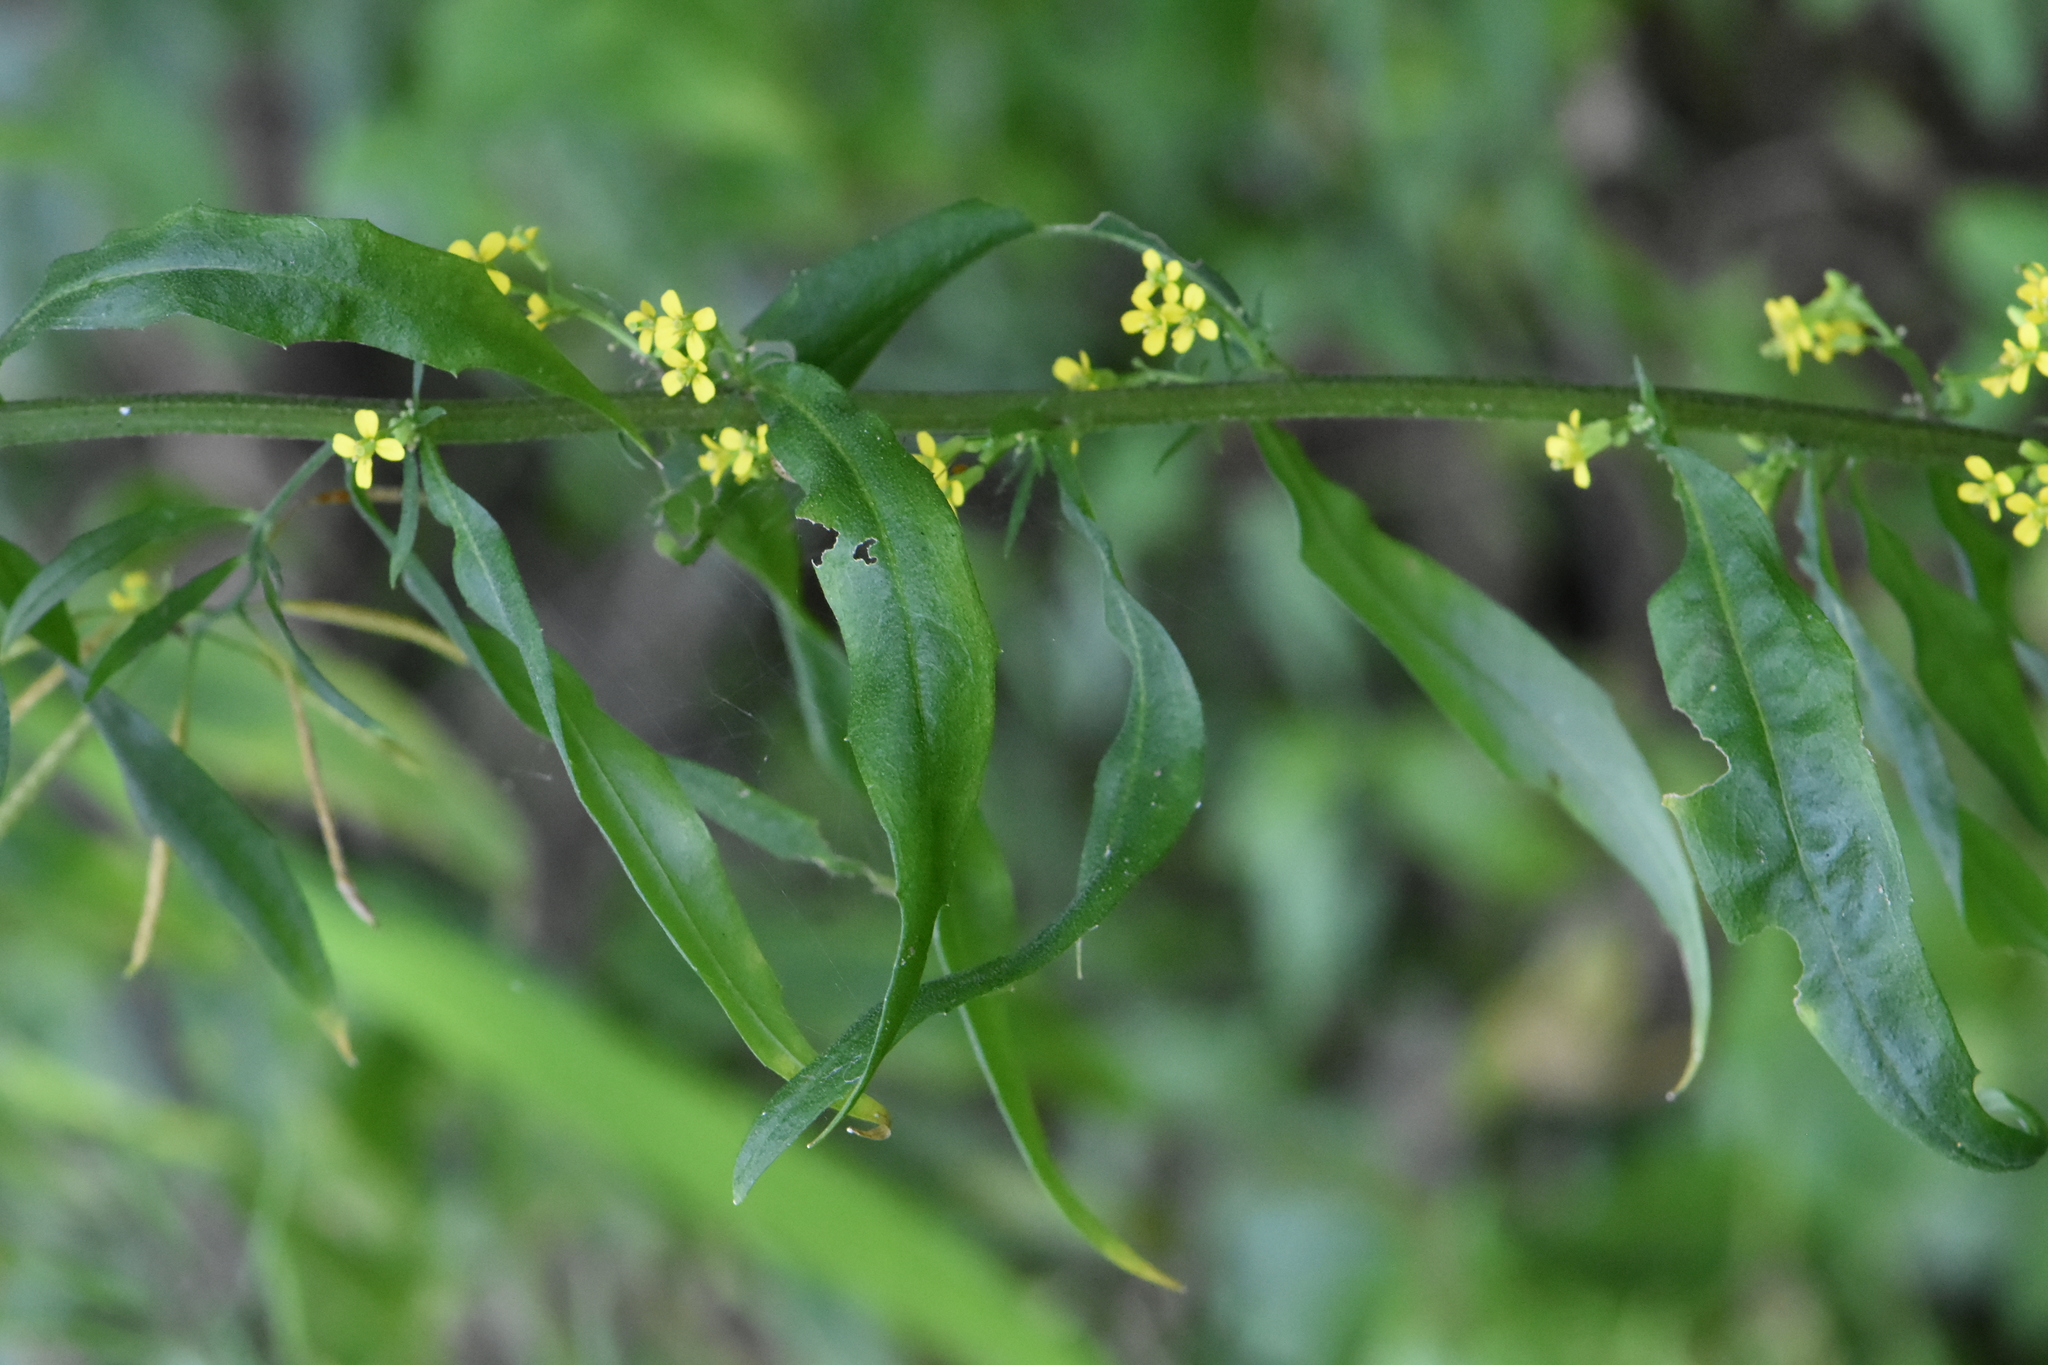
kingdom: Plantae
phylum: Tracheophyta
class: Magnoliopsida
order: Brassicales
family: Brassicaceae
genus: Erysimum
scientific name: Erysimum cheiranthoides
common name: Treacle mustard
